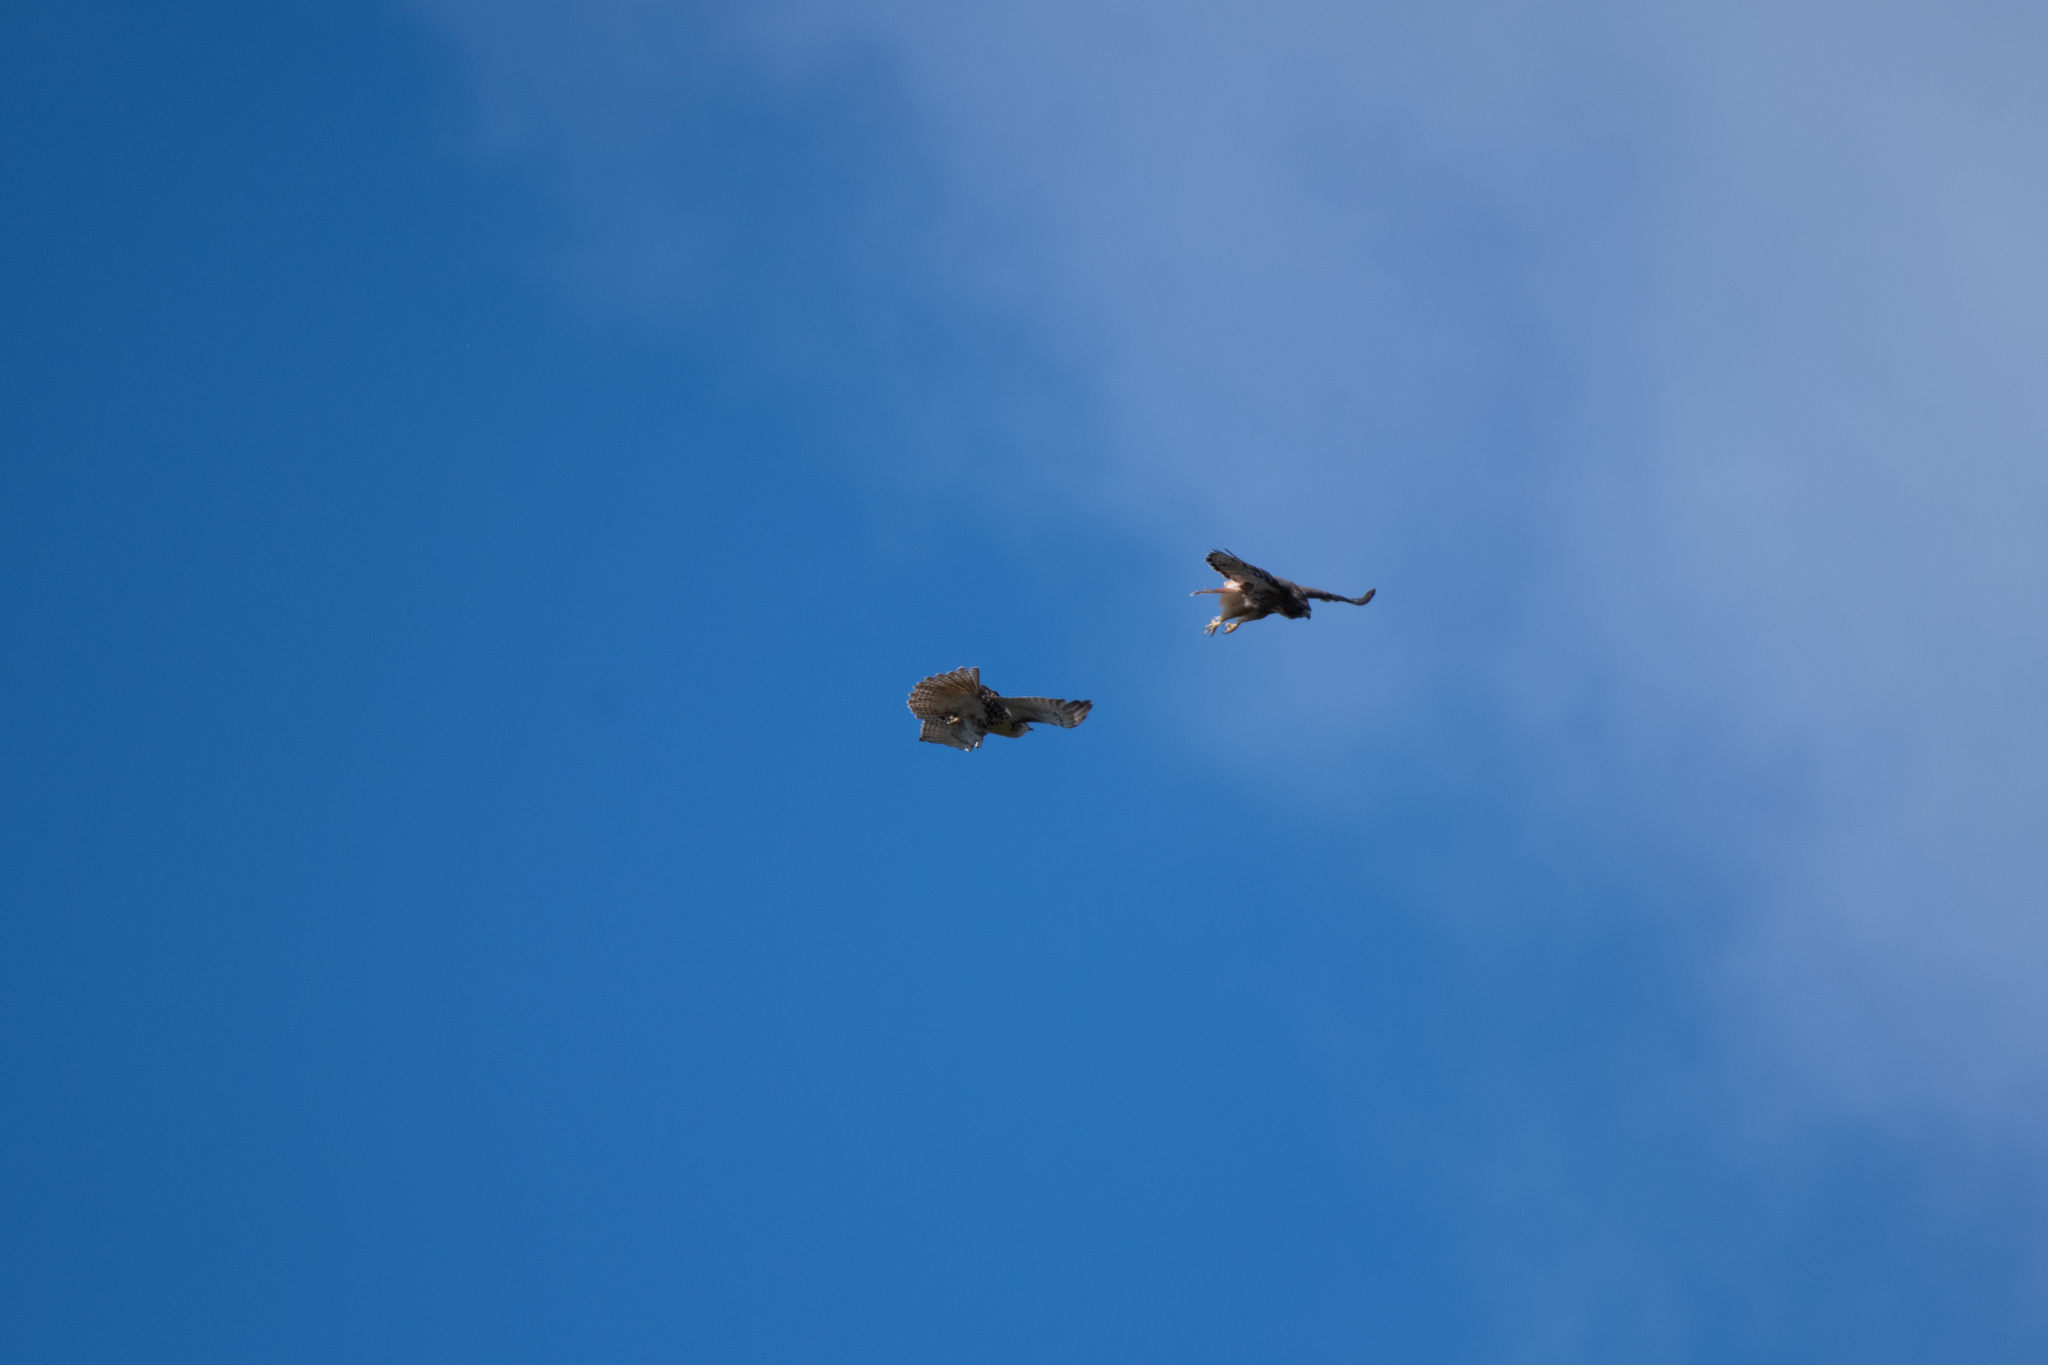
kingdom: Animalia
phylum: Chordata
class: Aves
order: Accipitriformes
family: Accipitridae
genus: Buteo
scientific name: Buteo jamaicensis
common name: Red-tailed hawk
